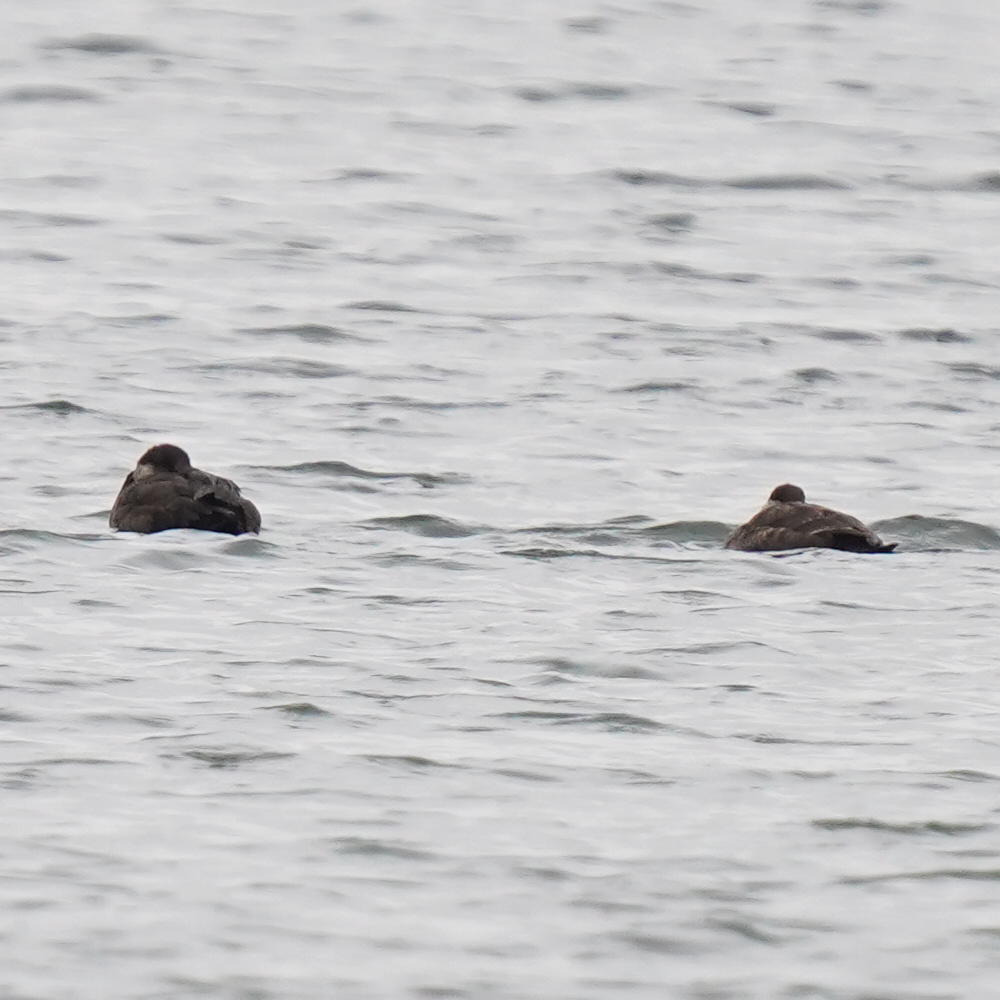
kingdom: Animalia
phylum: Chordata
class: Aves
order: Anseriformes
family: Anatidae
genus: Melanitta
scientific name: Melanitta americana
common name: Black scoter
